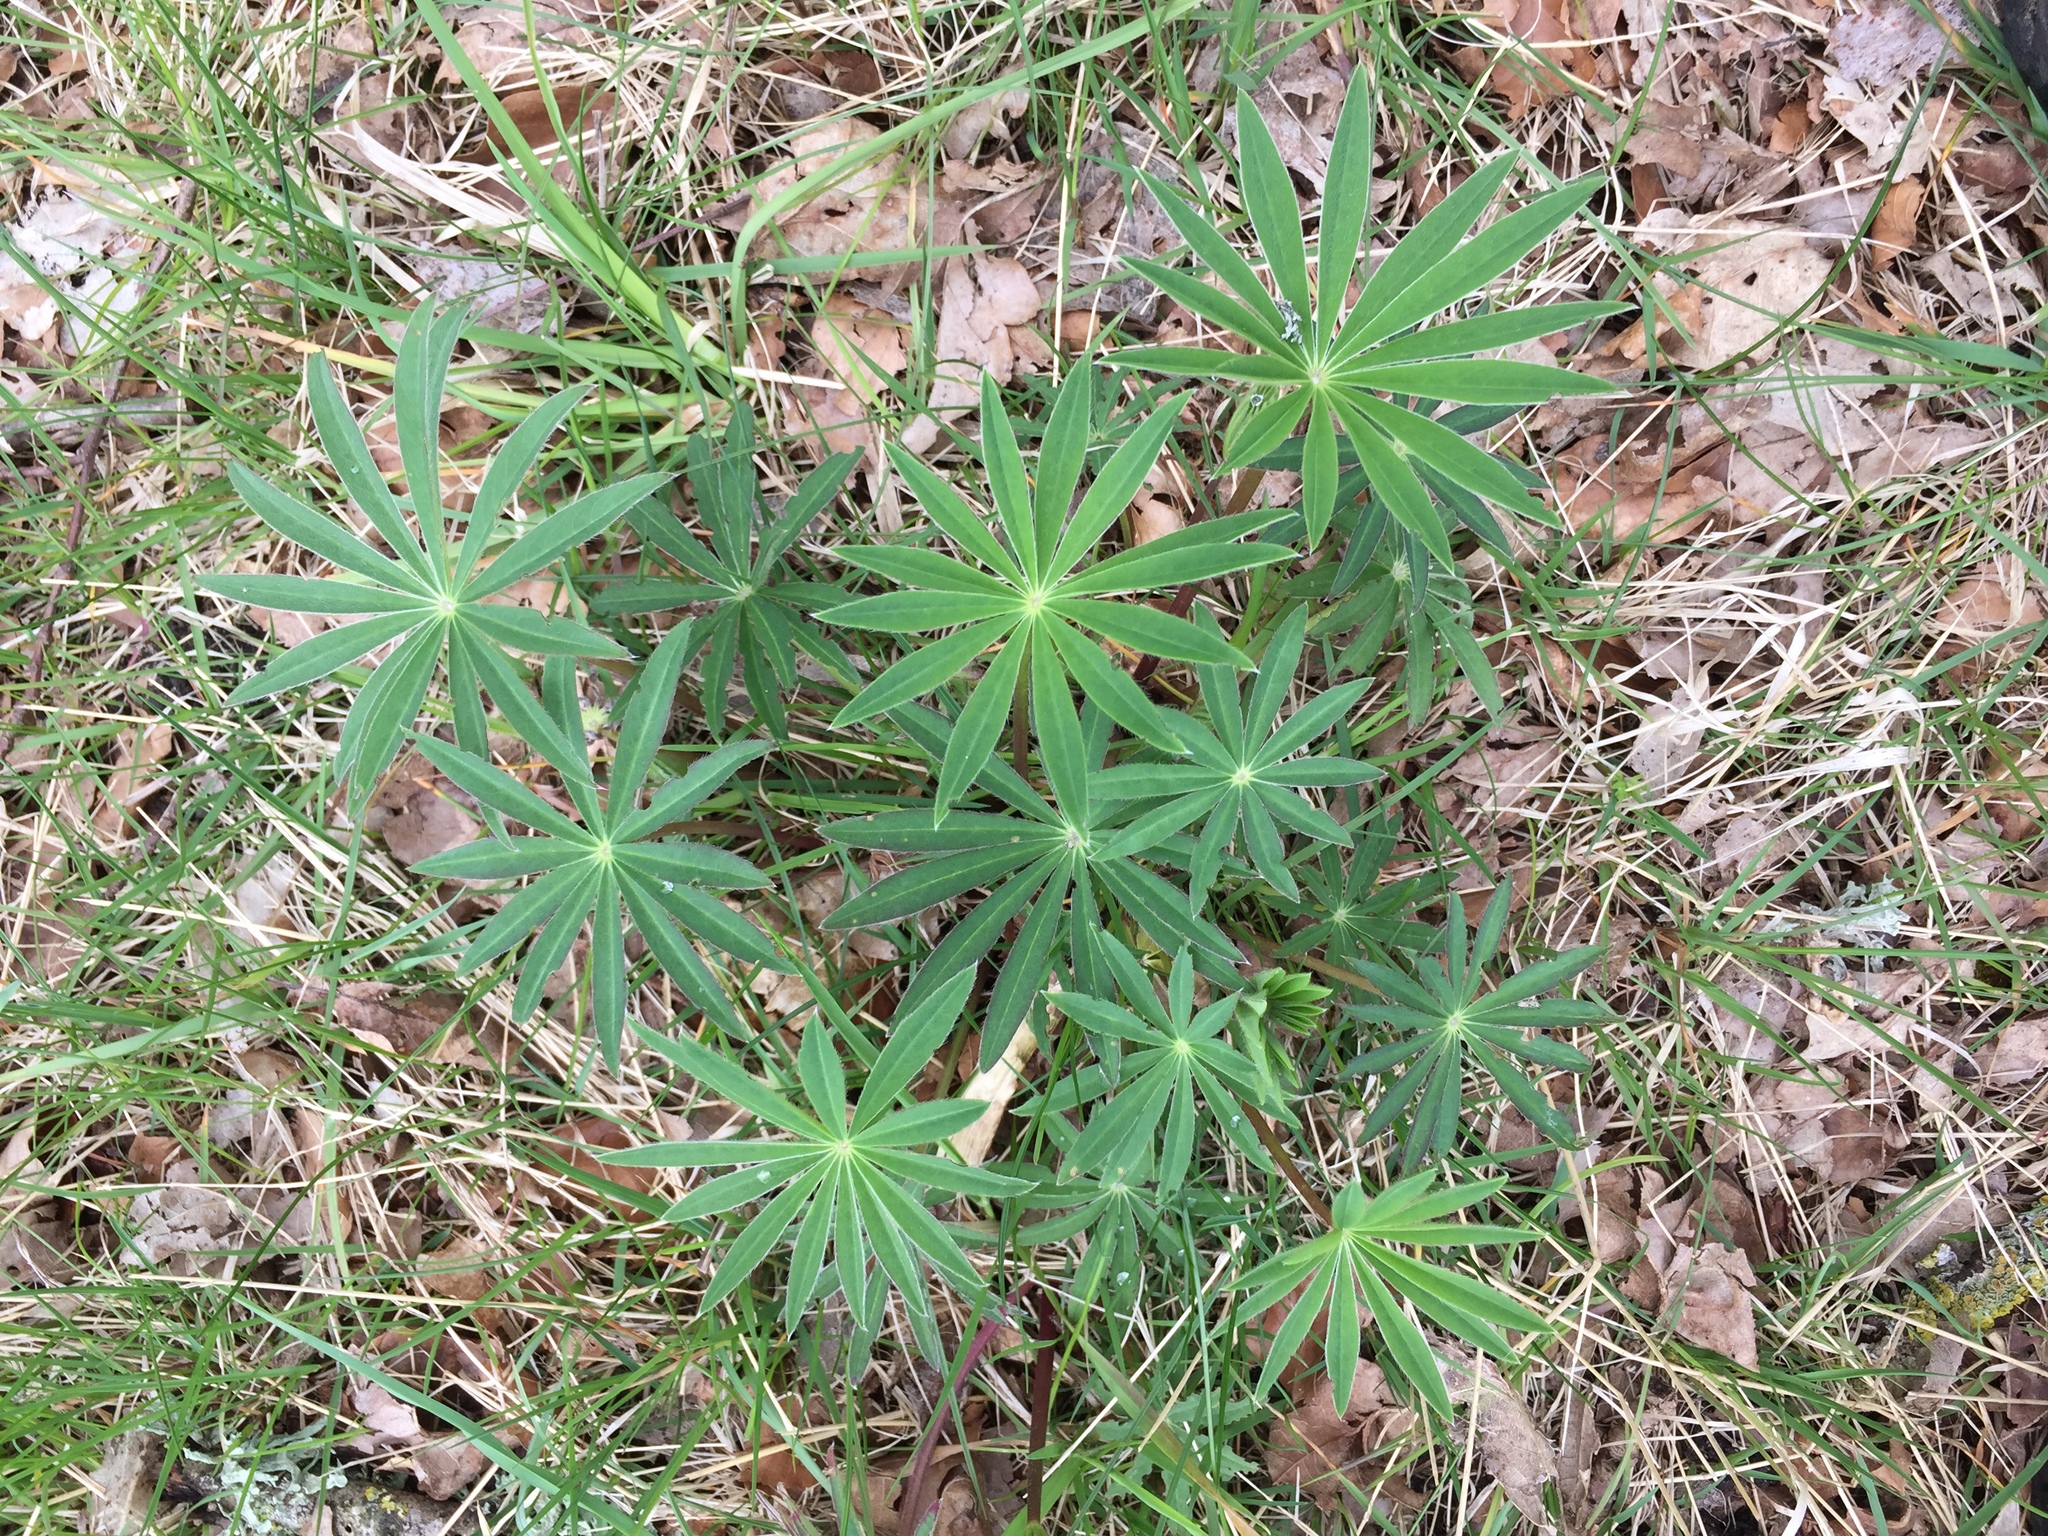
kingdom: Plantae
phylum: Tracheophyta
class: Magnoliopsida
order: Fabales
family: Fabaceae
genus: Lupinus
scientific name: Lupinus polyphyllus
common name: Garden lupin
